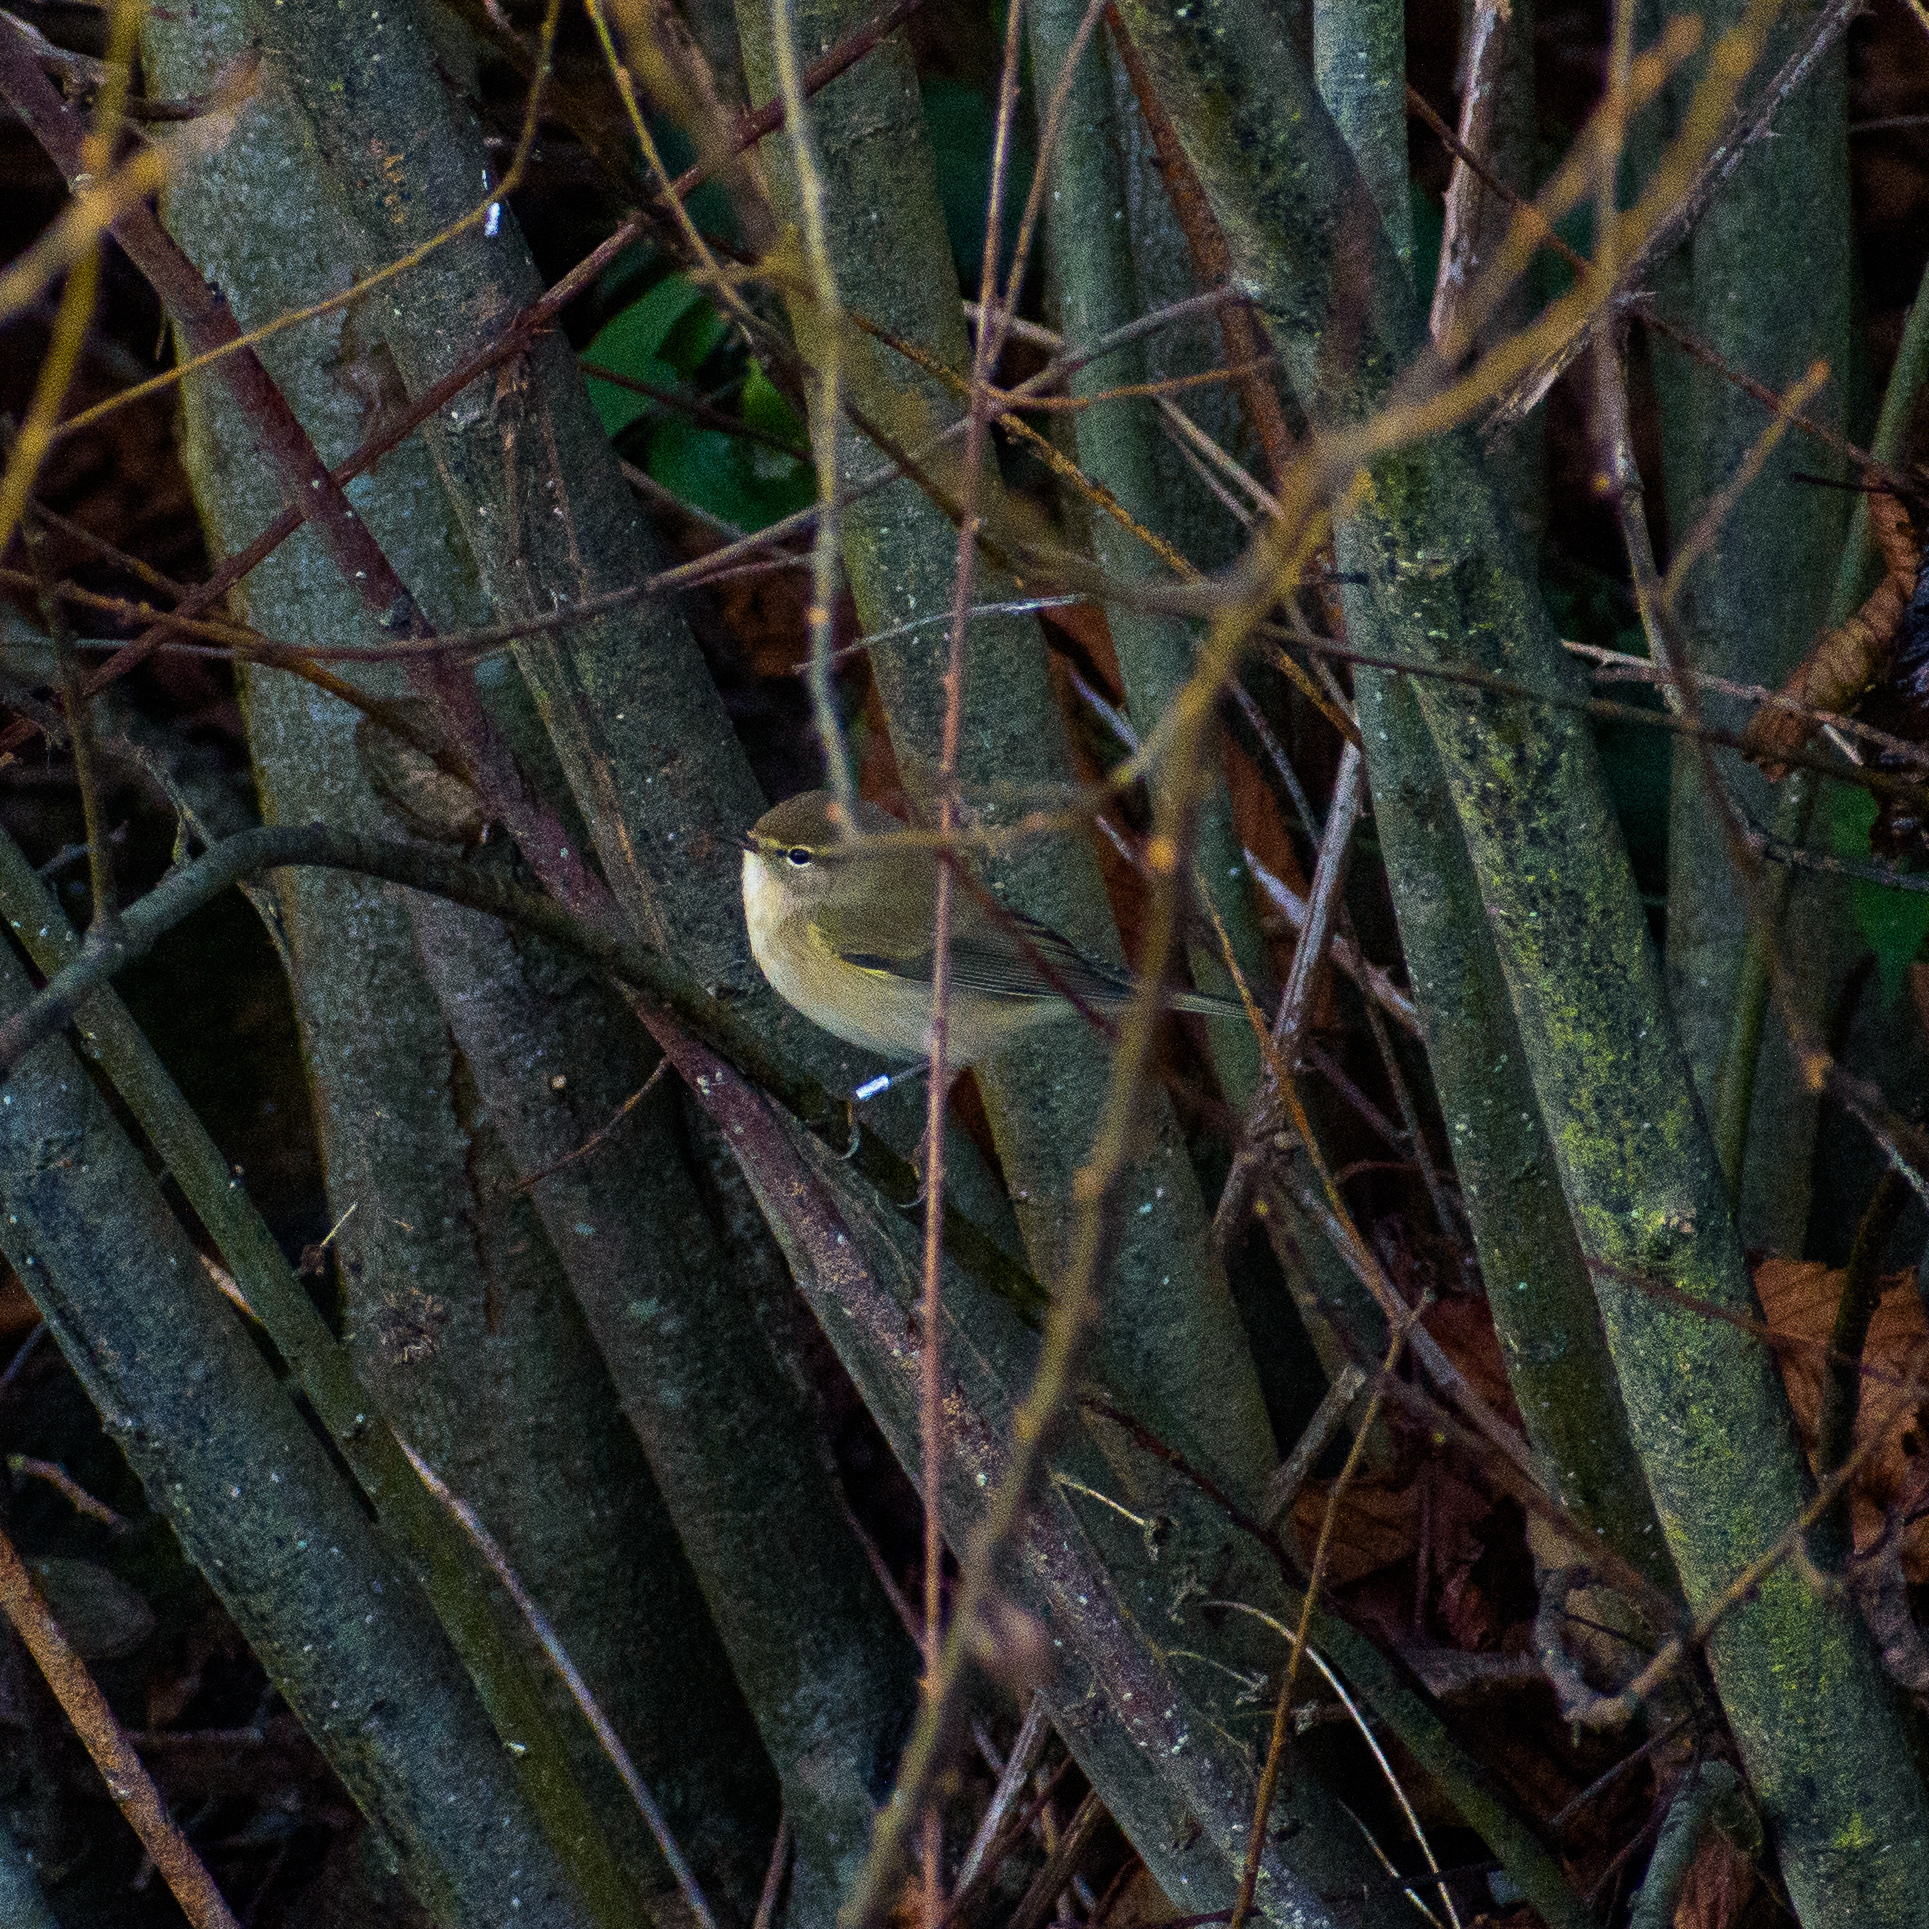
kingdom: Animalia
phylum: Chordata
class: Aves
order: Passeriformes
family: Phylloscopidae
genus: Phylloscopus
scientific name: Phylloscopus collybita
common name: Common chiffchaff
